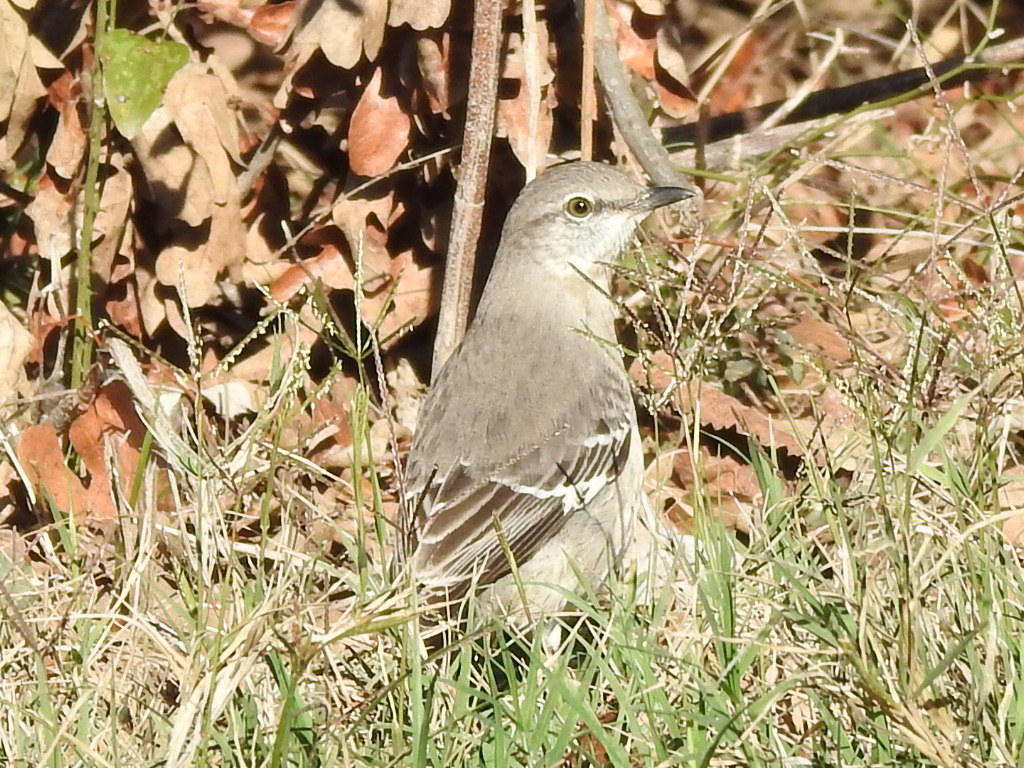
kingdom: Animalia
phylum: Chordata
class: Aves
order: Passeriformes
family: Mimidae
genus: Mimus
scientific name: Mimus polyglottos
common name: Northern mockingbird
